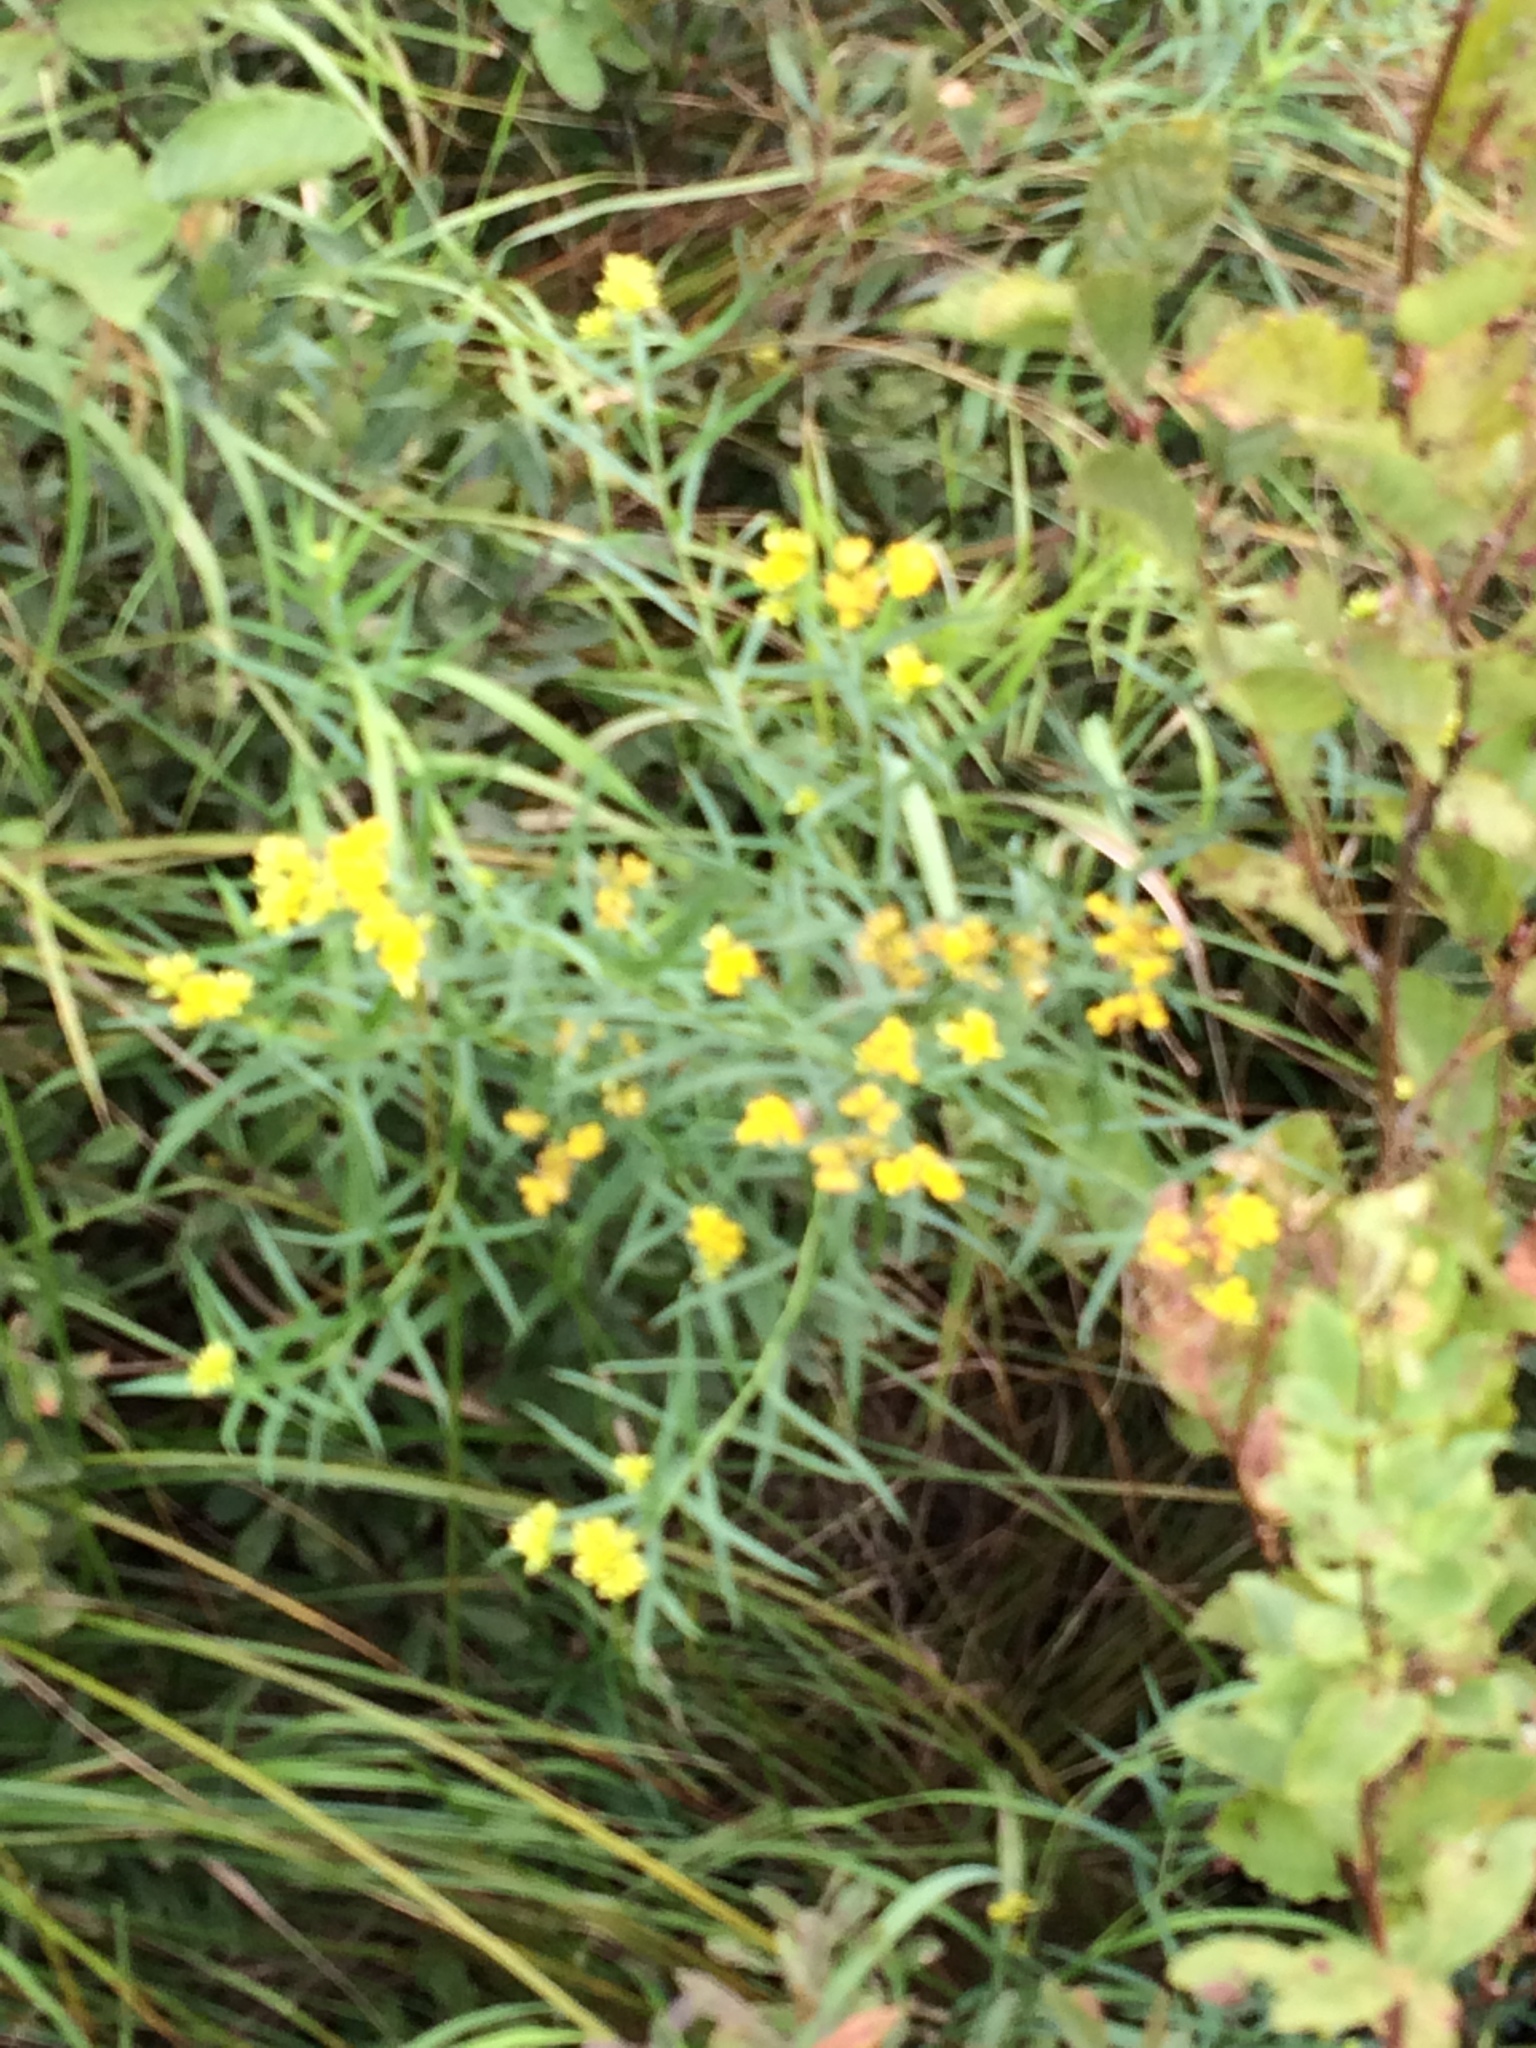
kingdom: Plantae
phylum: Tracheophyta
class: Magnoliopsida
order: Asterales
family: Asteraceae
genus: Euthamia
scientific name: Euthamia graminifolia
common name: Common goldentop
